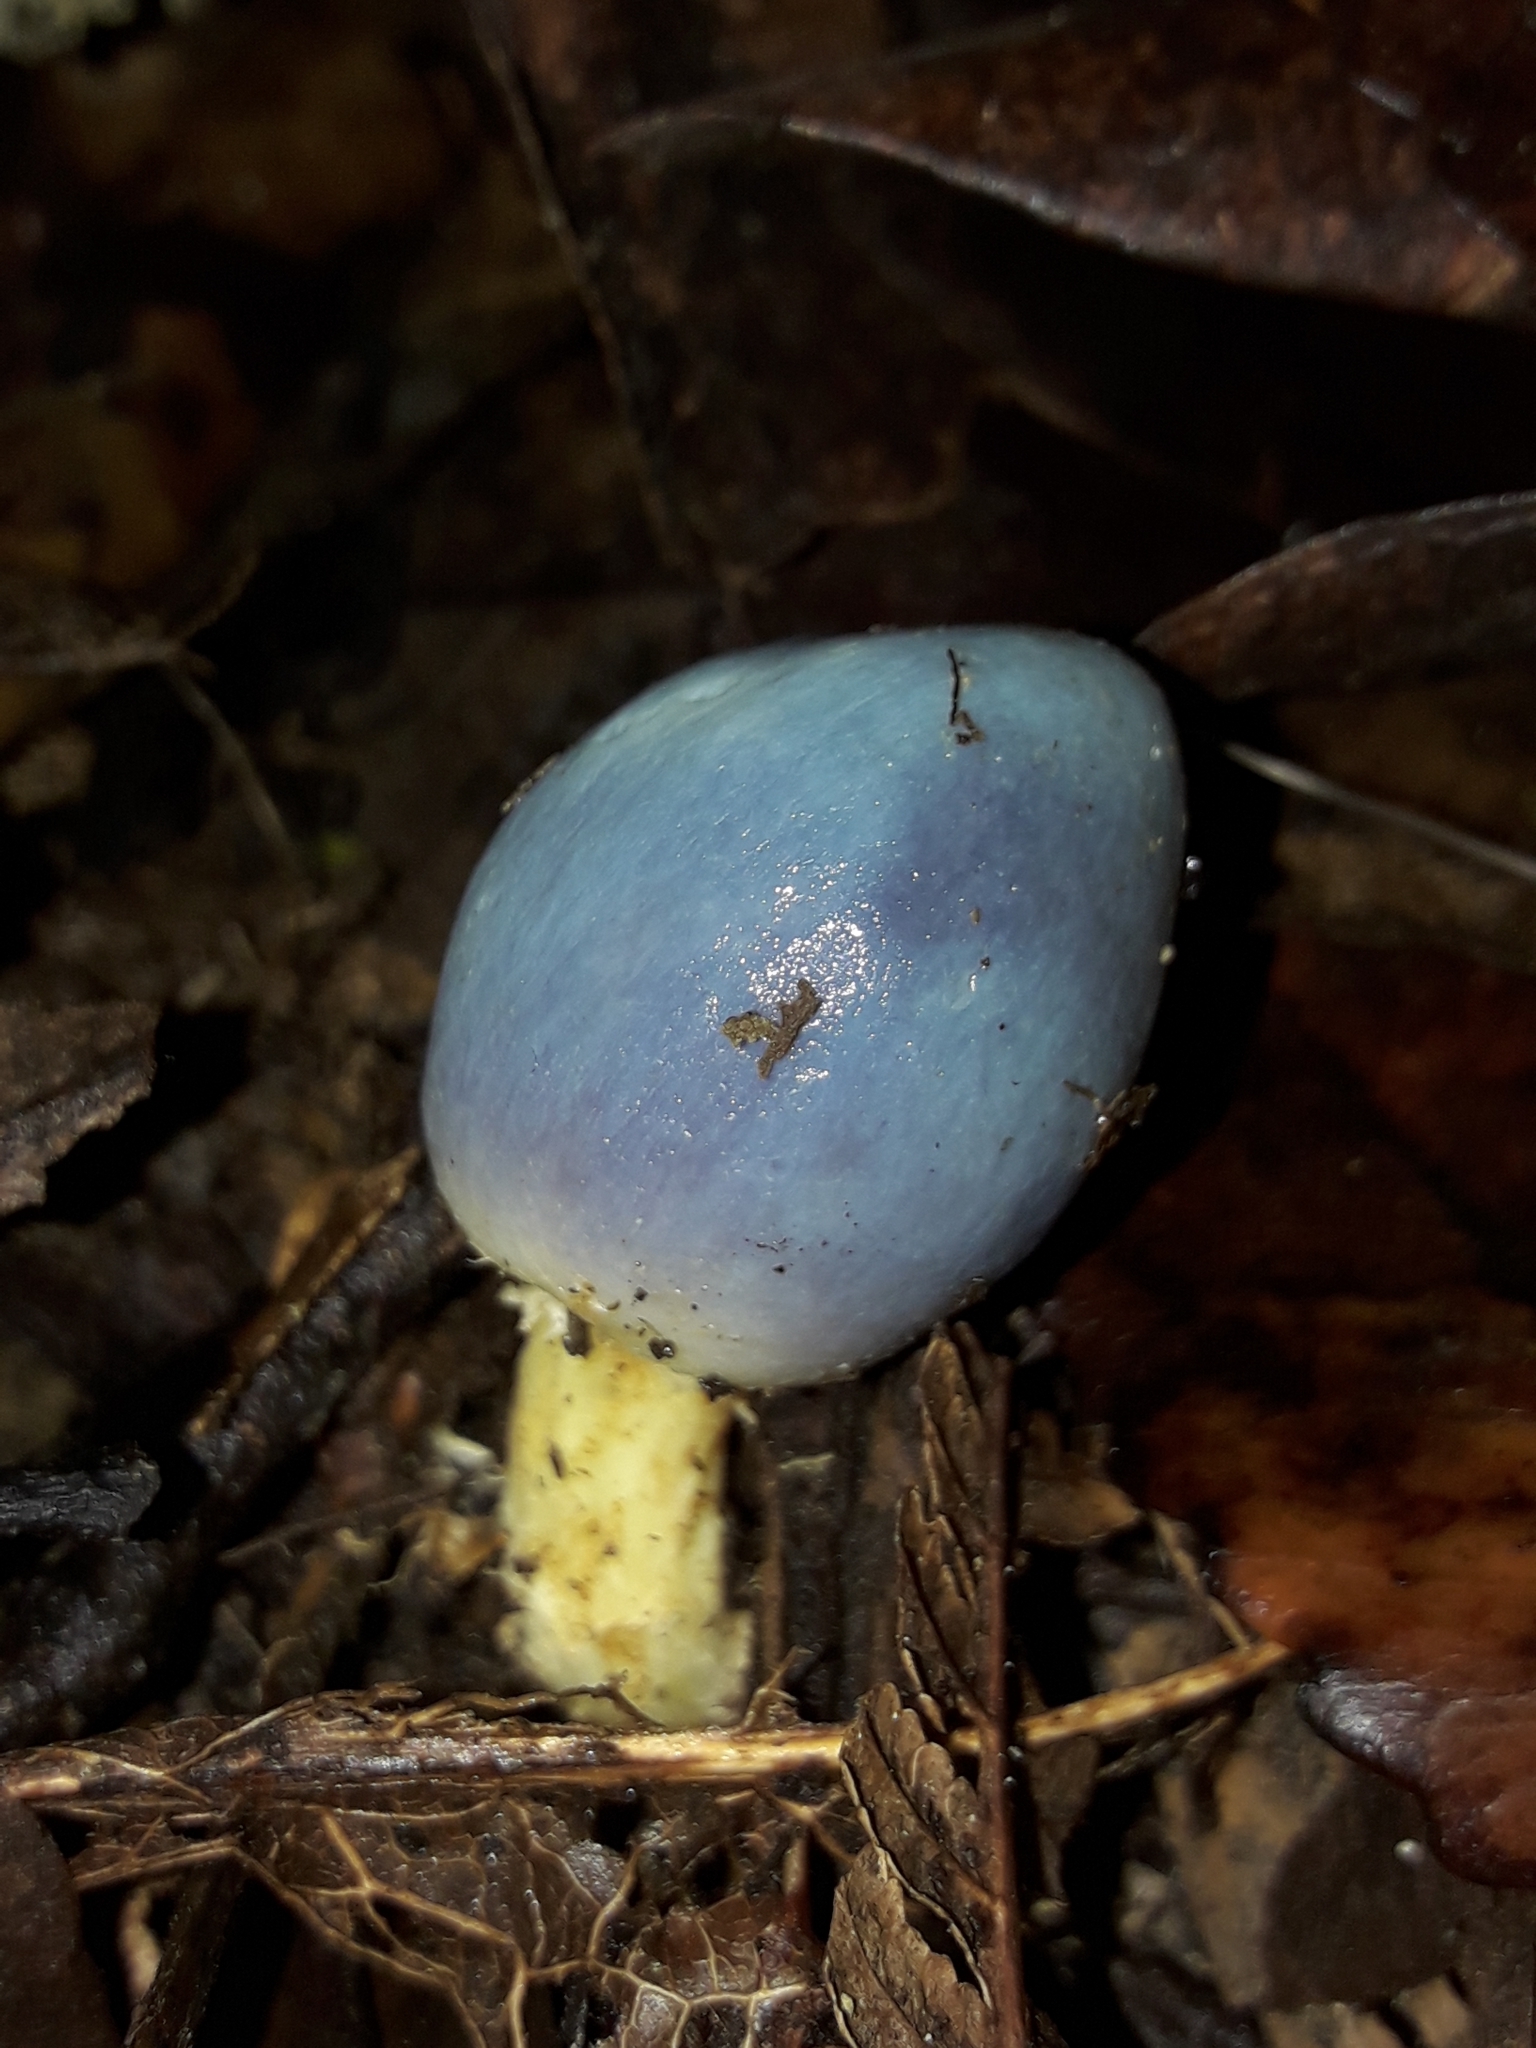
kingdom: Fungi
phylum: Basidiomycota
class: Agaricomycetes
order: Agaricales
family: Agaricaceae
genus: Clavogaster
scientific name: Clavogaster virescens
